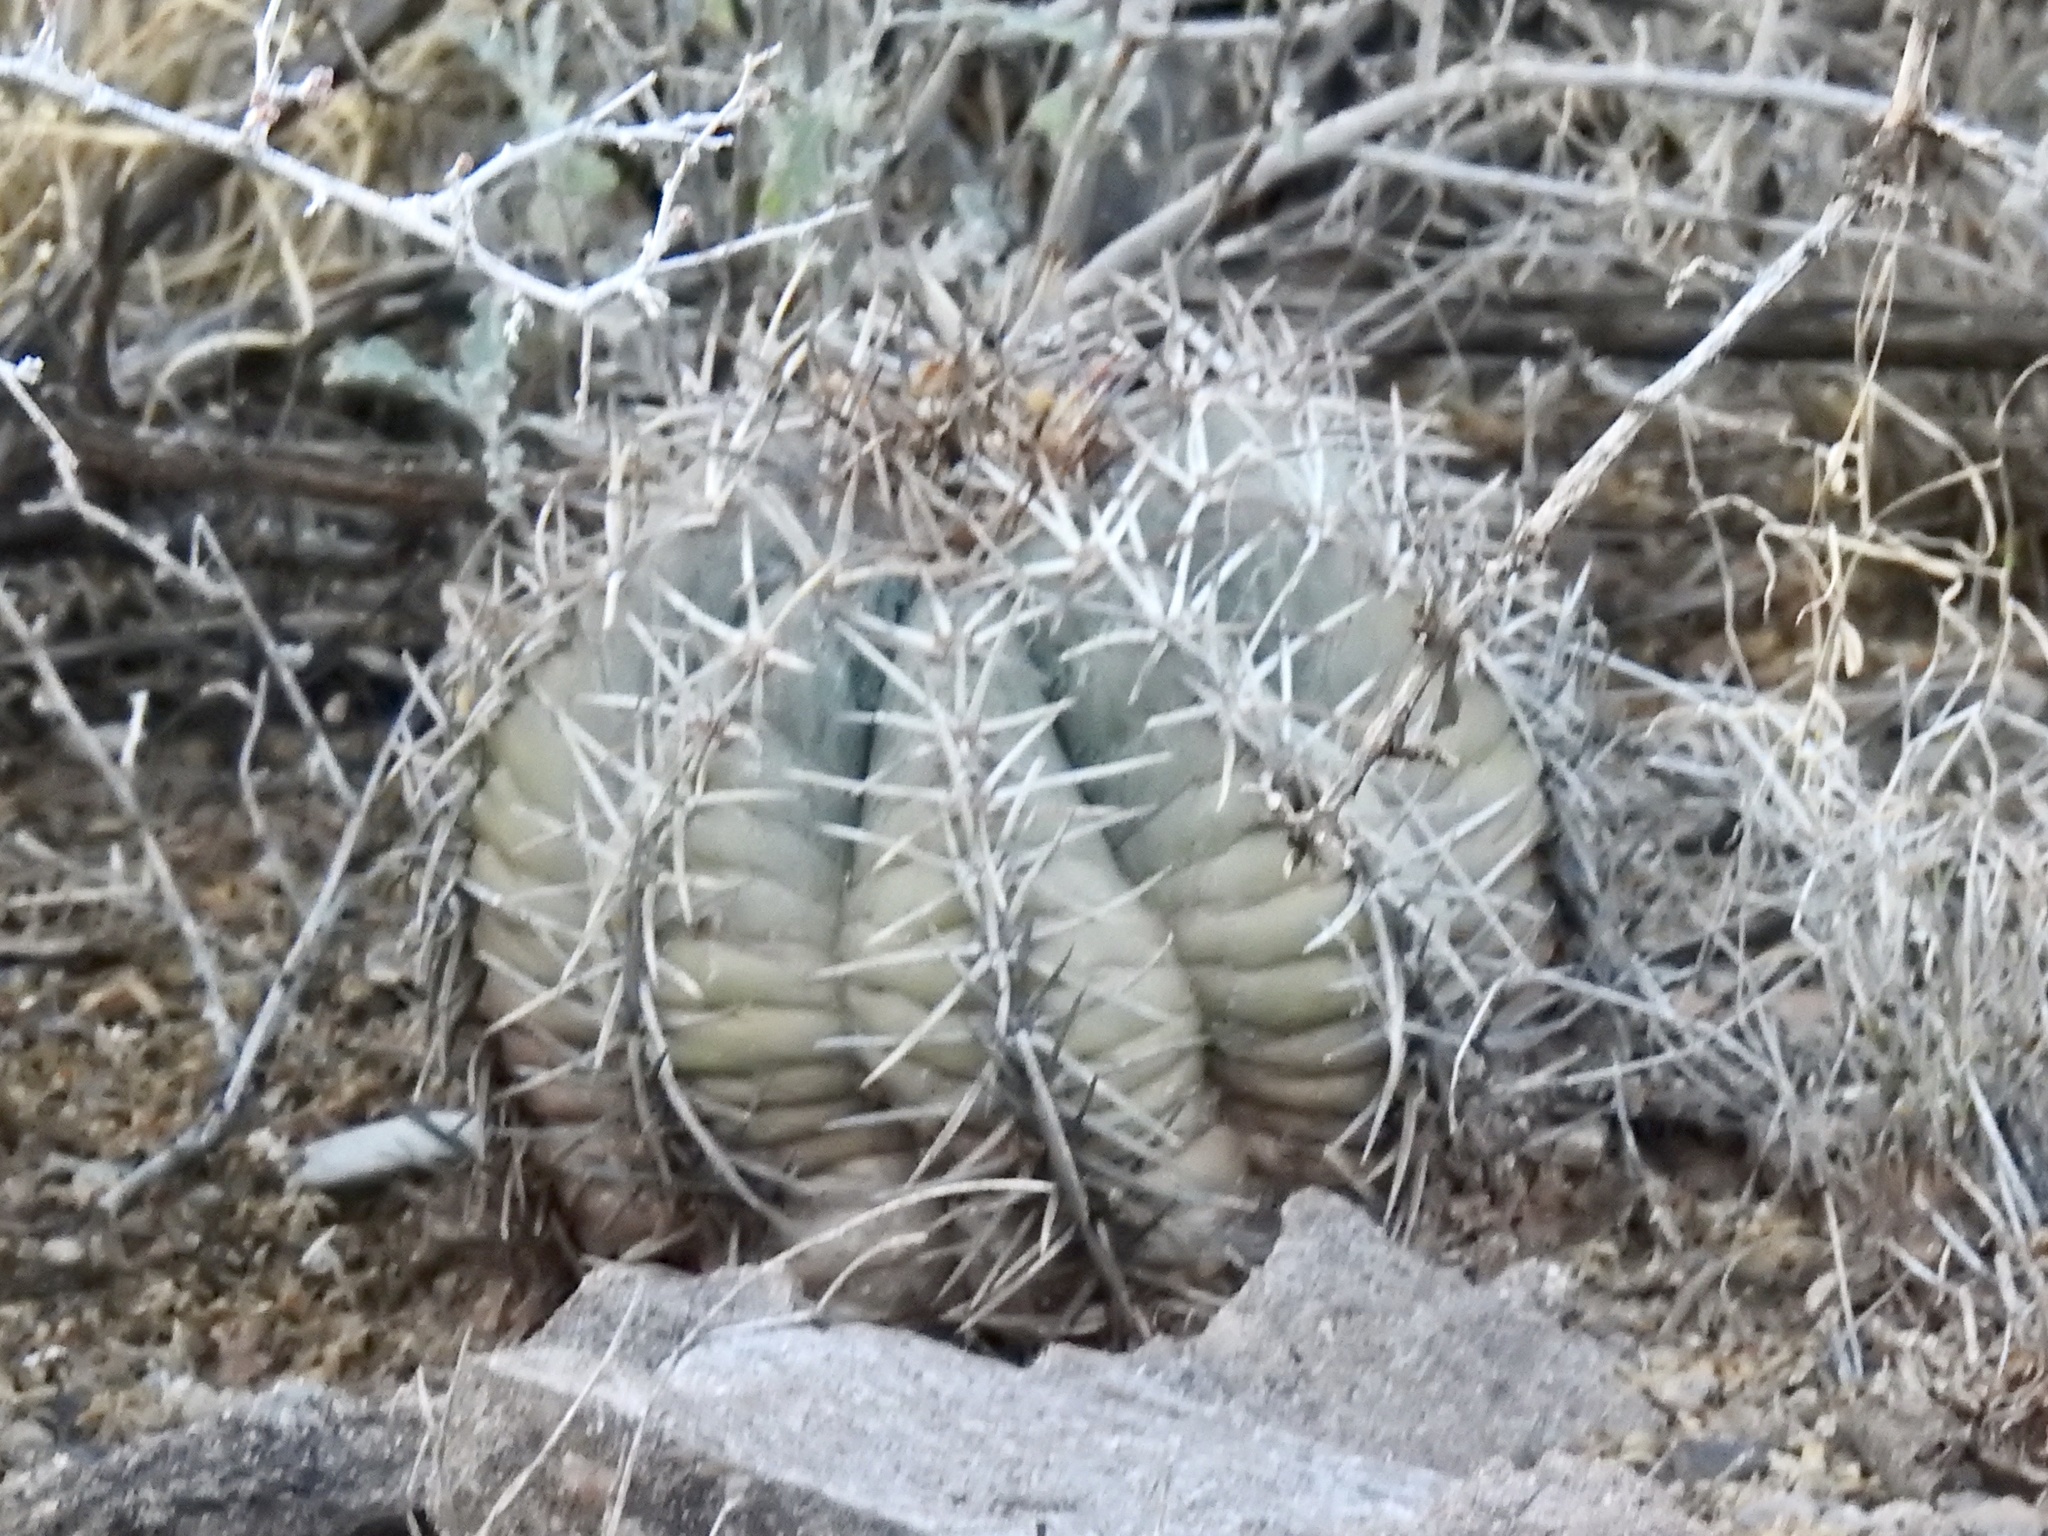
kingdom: Plantae
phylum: Tracheophyta
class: Magnoliopsida
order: Caryophyllales
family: Cactaceae
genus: Echinocactus
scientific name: Echinocactus horizonthalonius
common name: Devilshead
